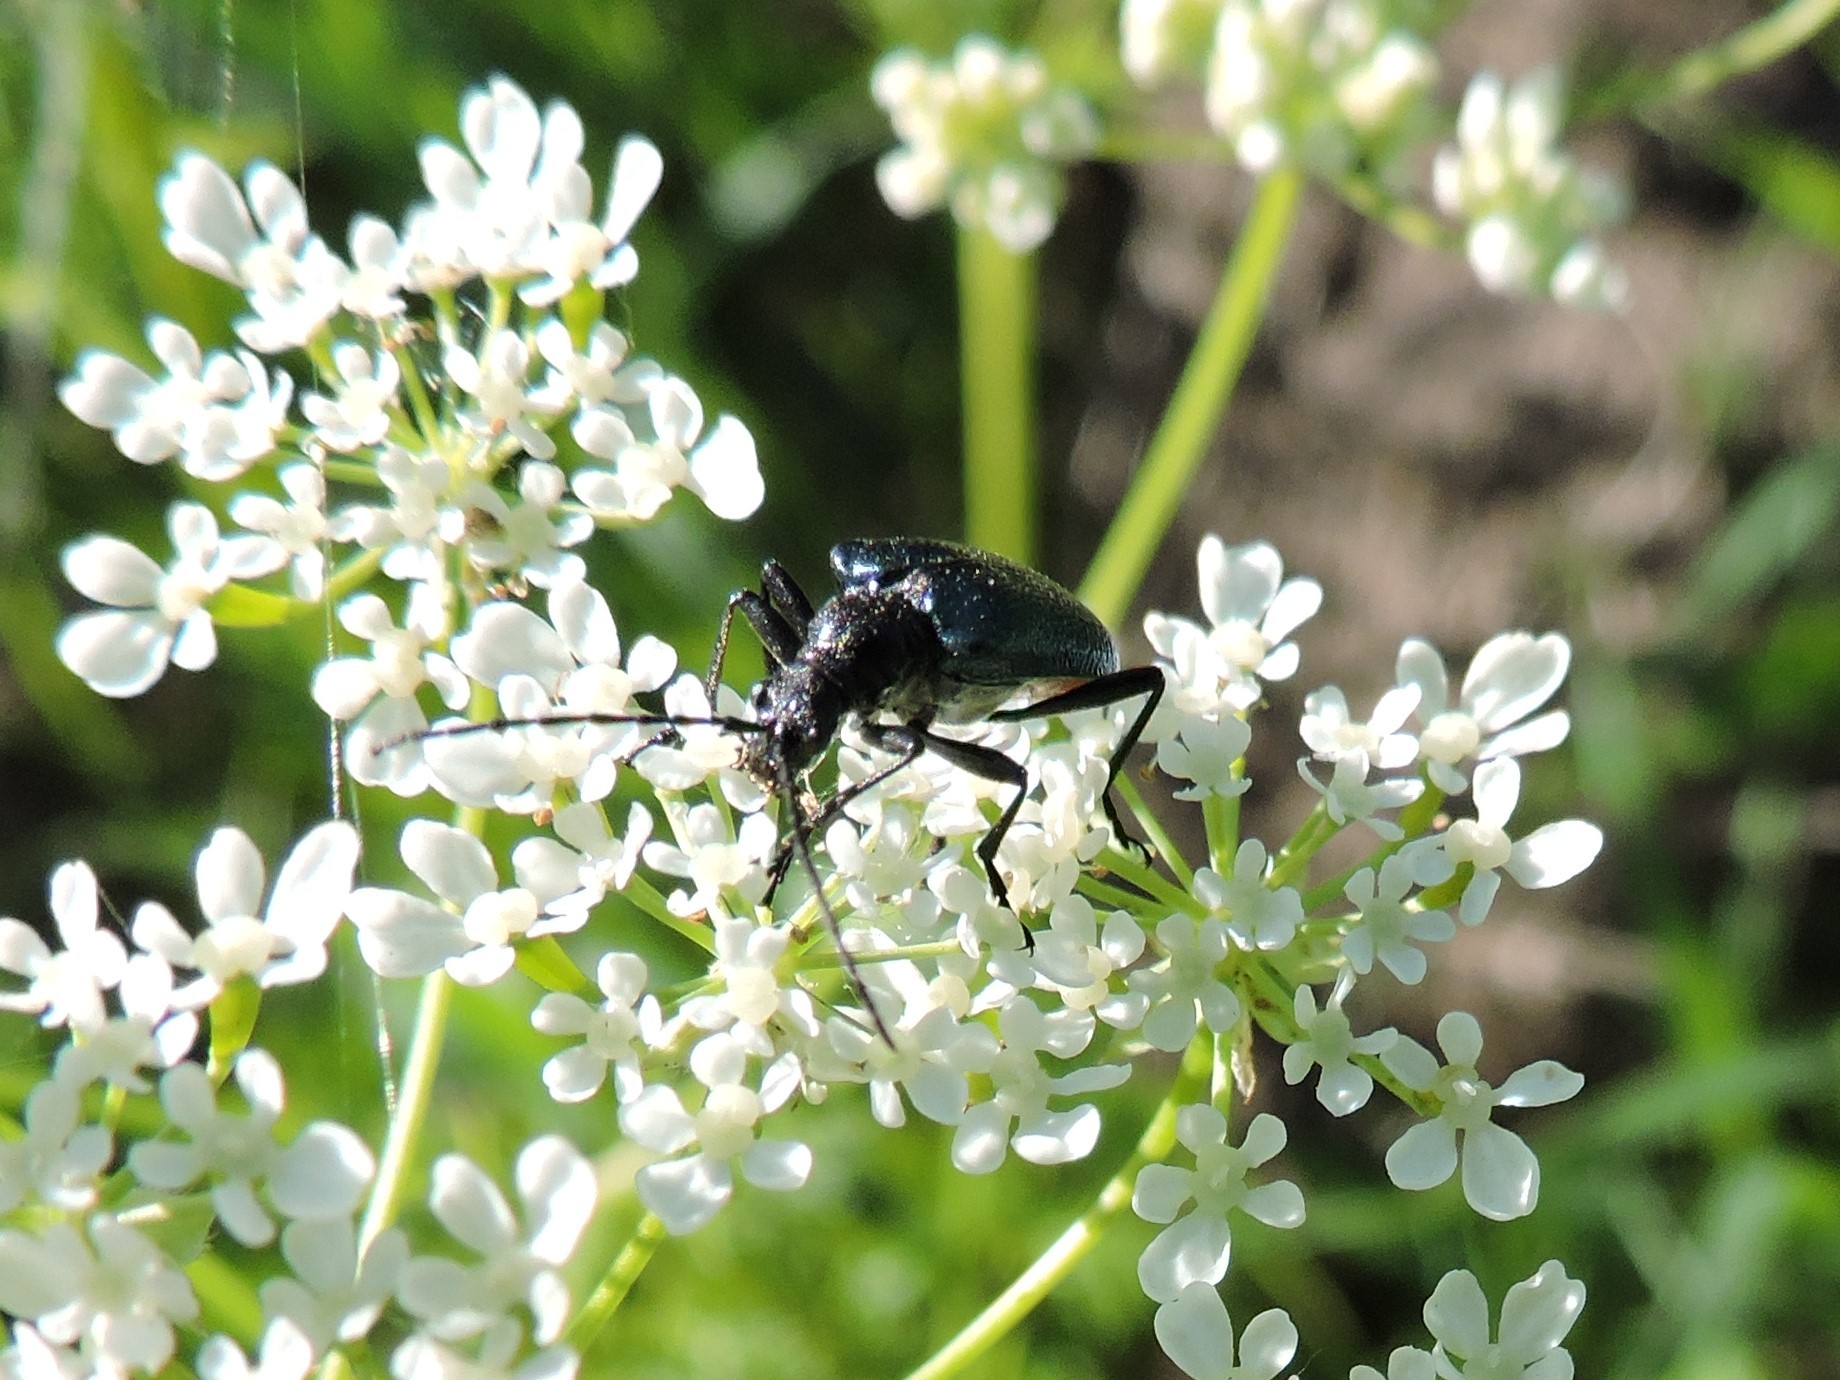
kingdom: Animalia
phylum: Arthropoda
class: Insecta
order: Coleoptera
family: Cerambycidae
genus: Gaurotes
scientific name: Gaurotes virginea
